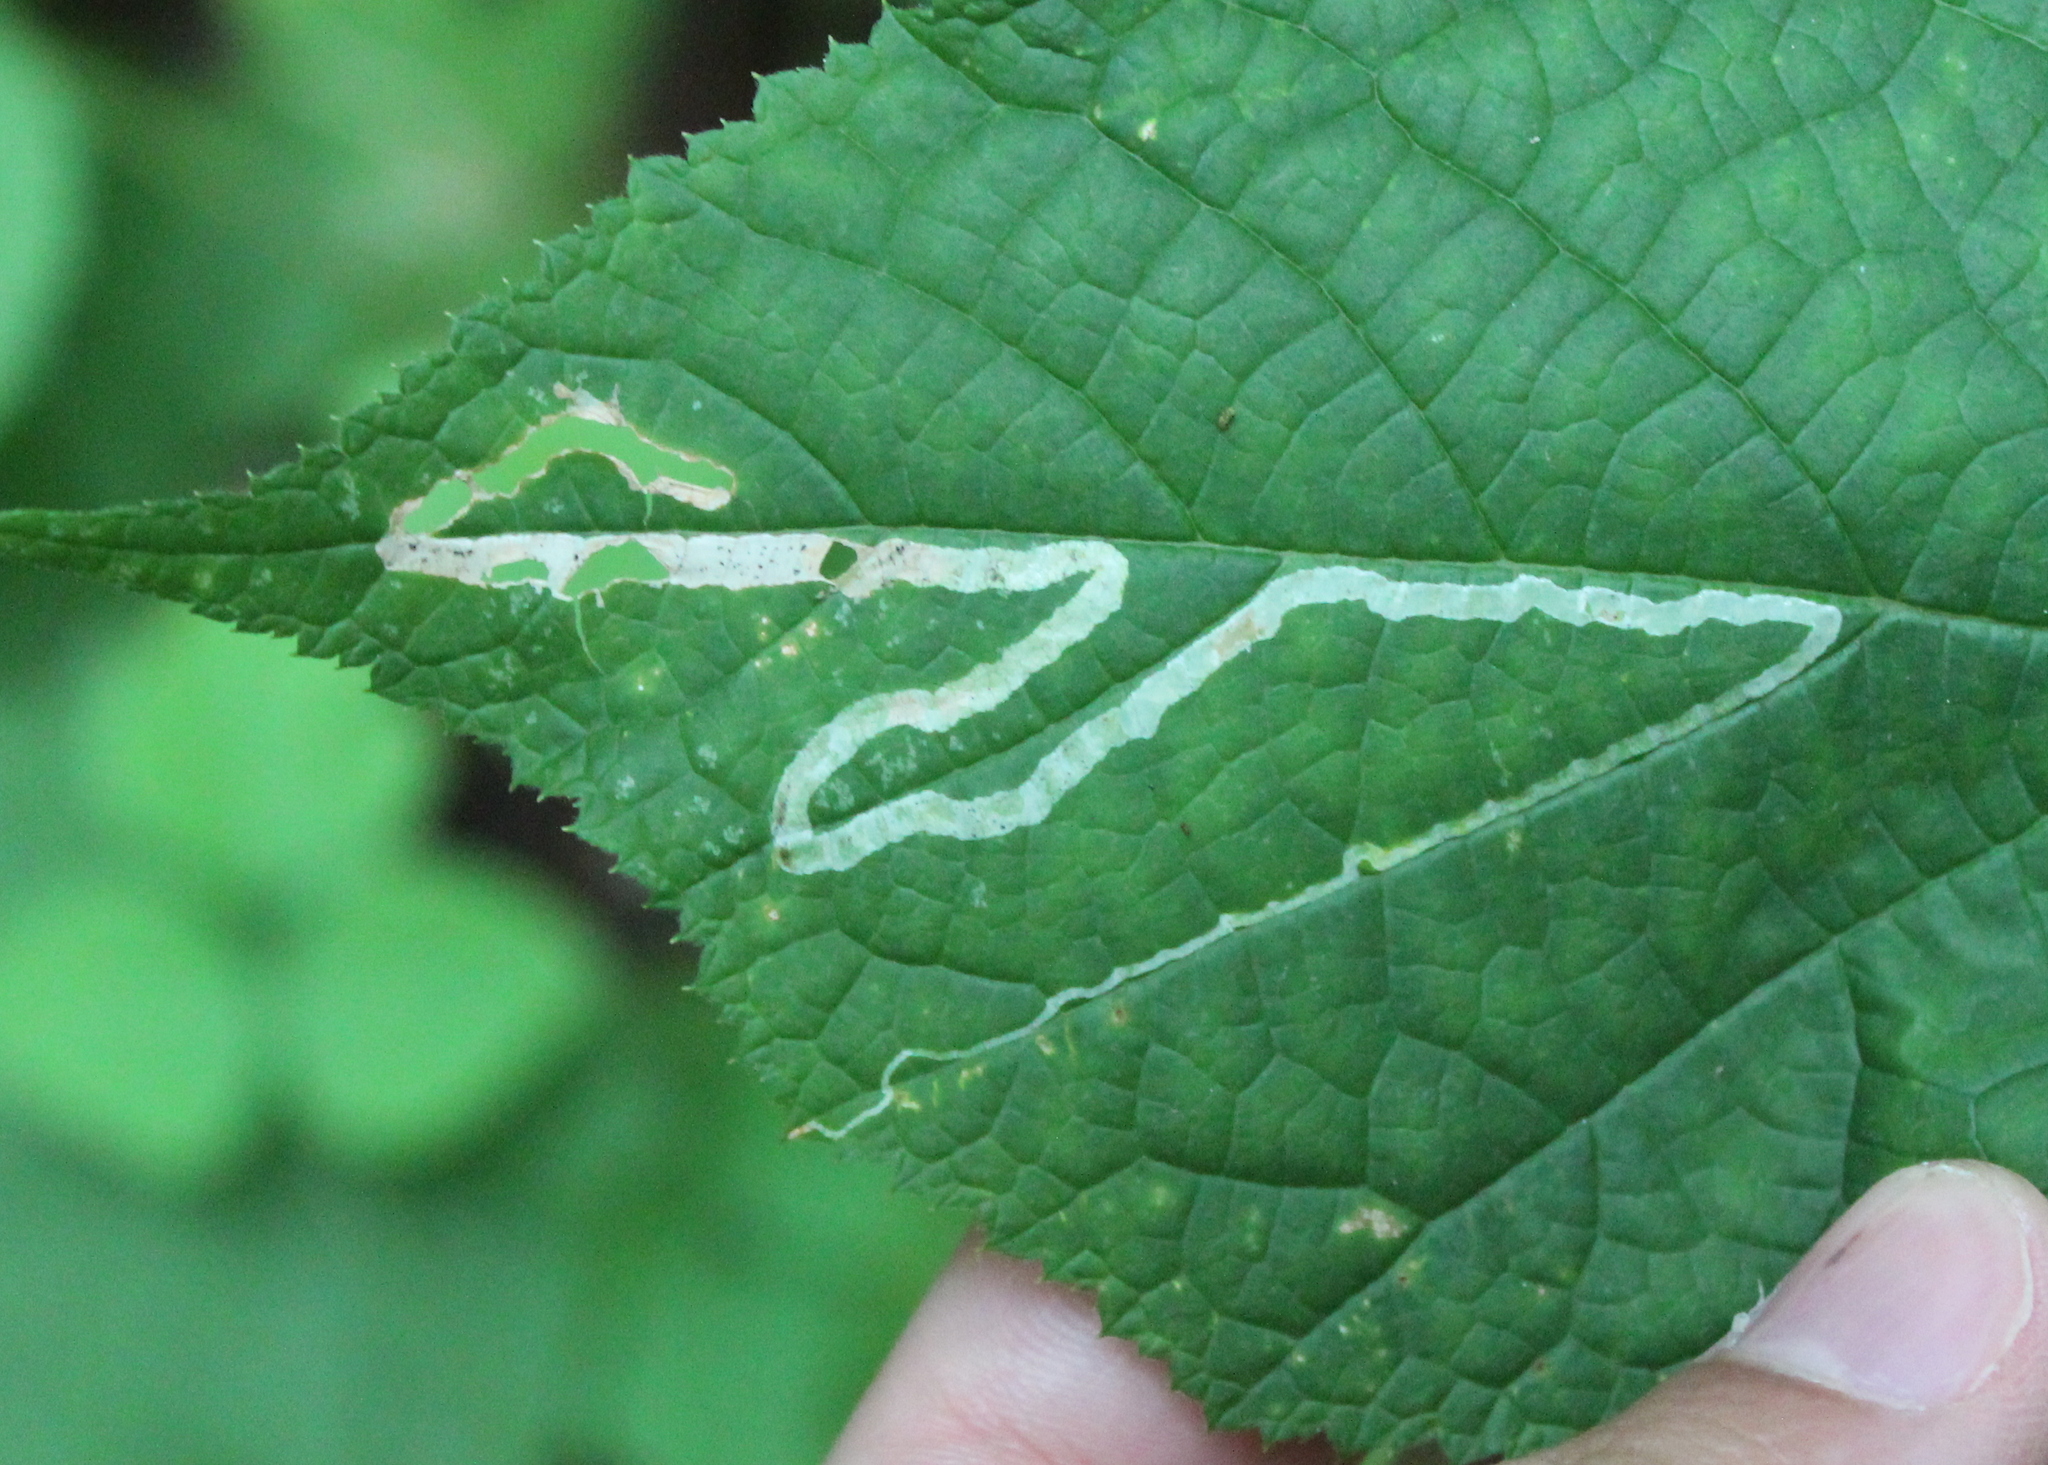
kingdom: Animalia
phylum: Arthropoda
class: Insecta
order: Diptera
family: Agromyzidae
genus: Agromyza
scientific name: Agromyza vockerothi
